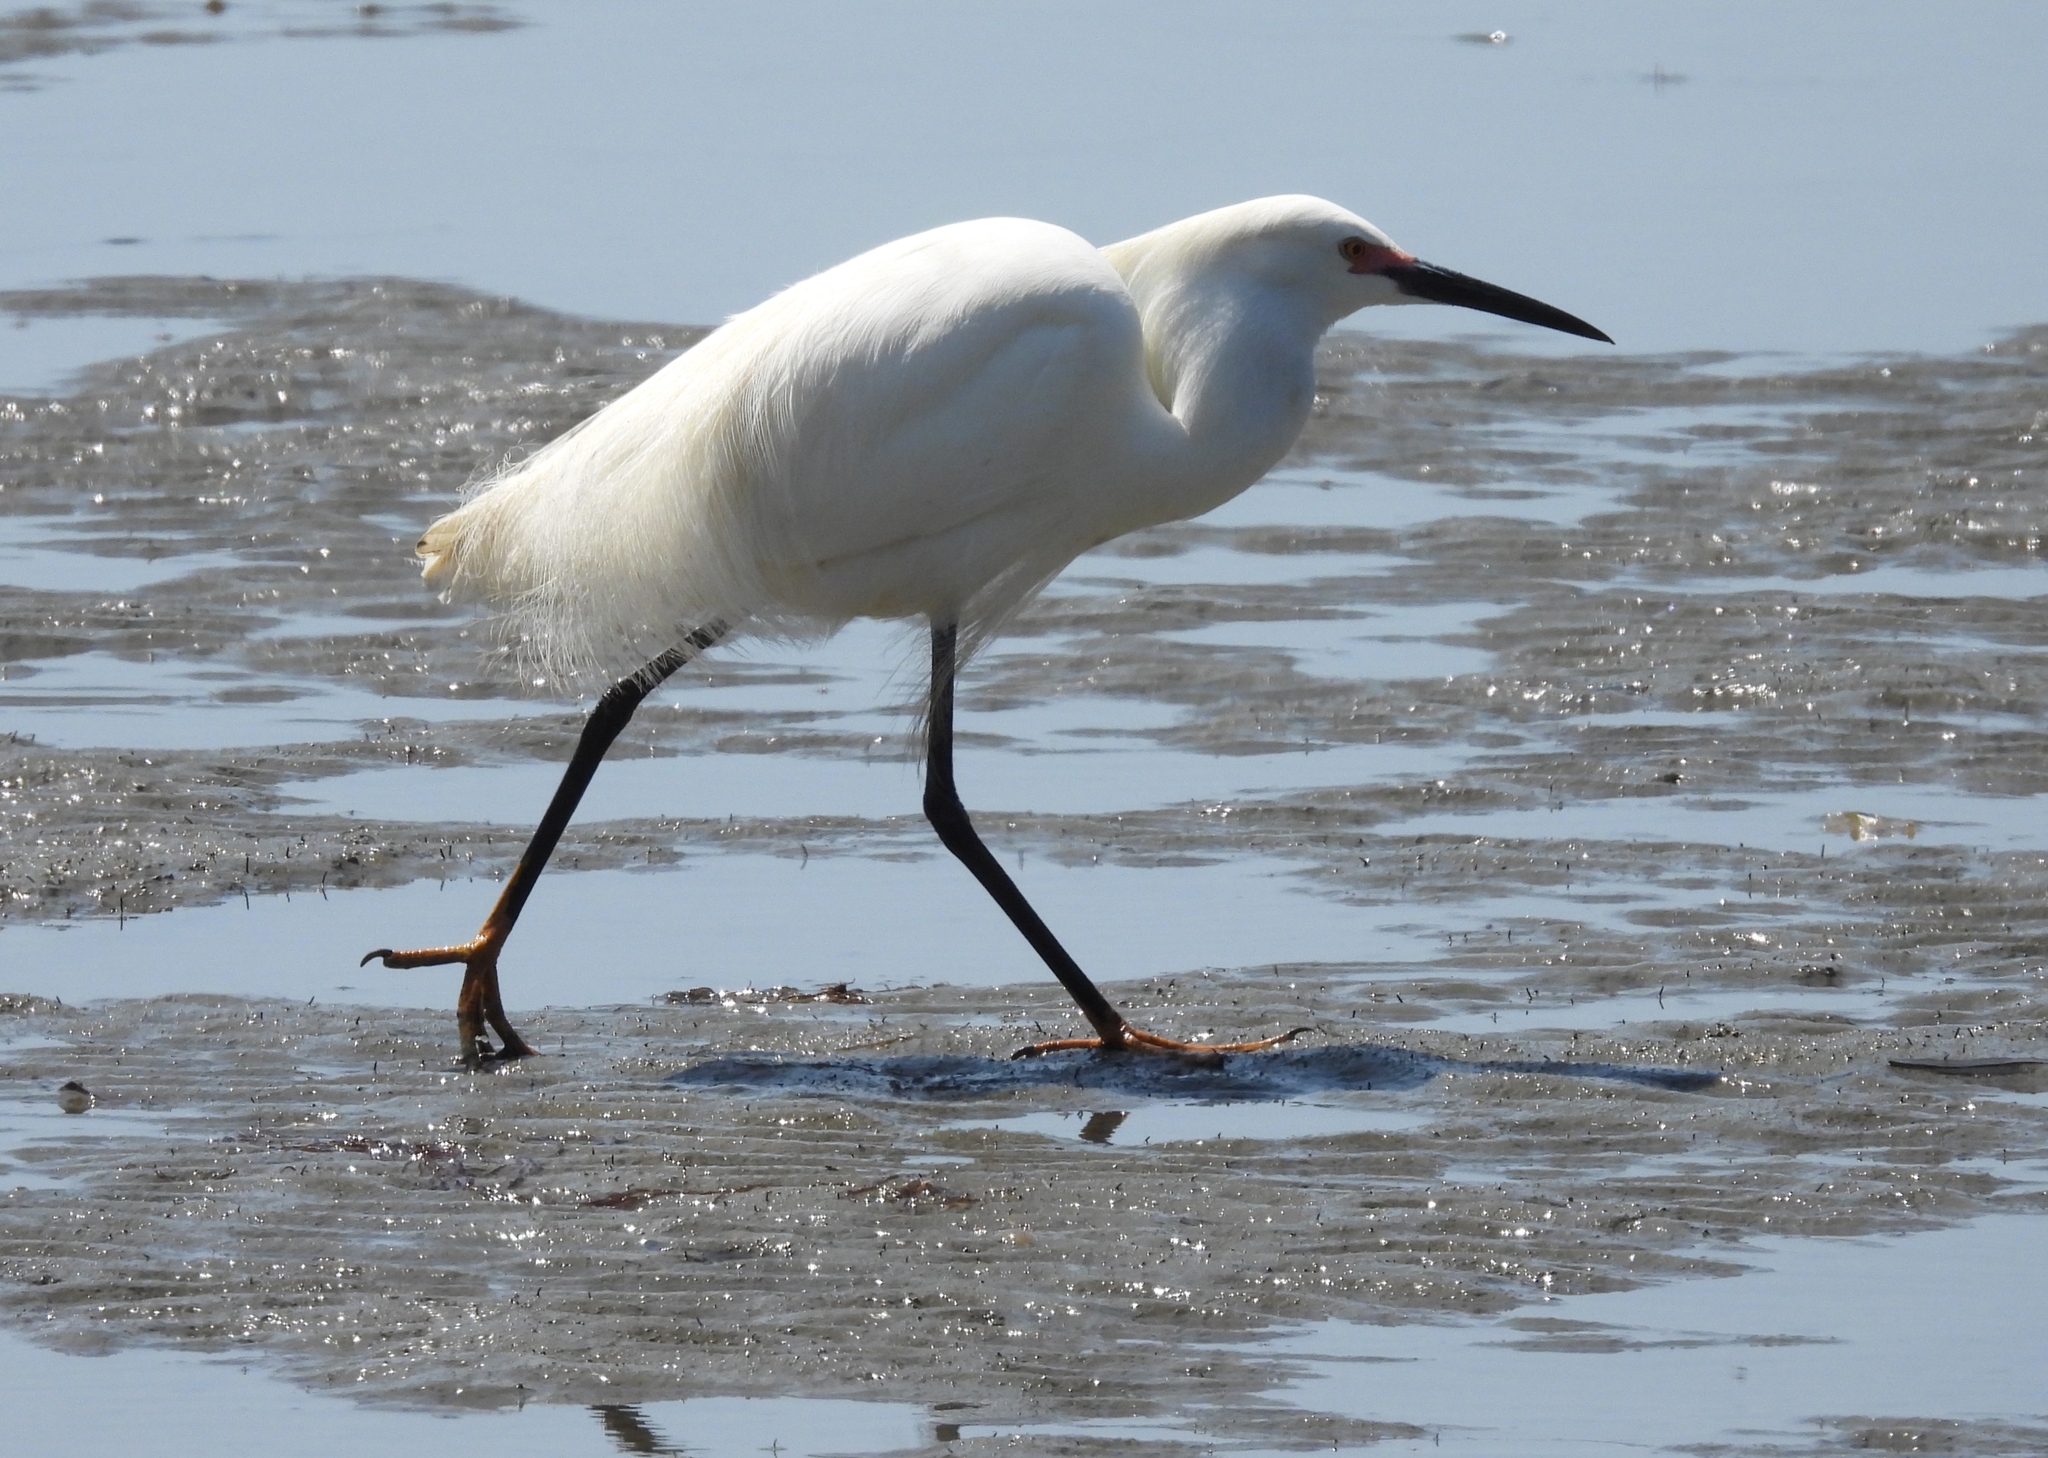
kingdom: Animalia
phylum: Chordata
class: Aves
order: Pelecaniformes
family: Ardeidae
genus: Egretta
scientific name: Egretta thula
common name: Snowy egret
